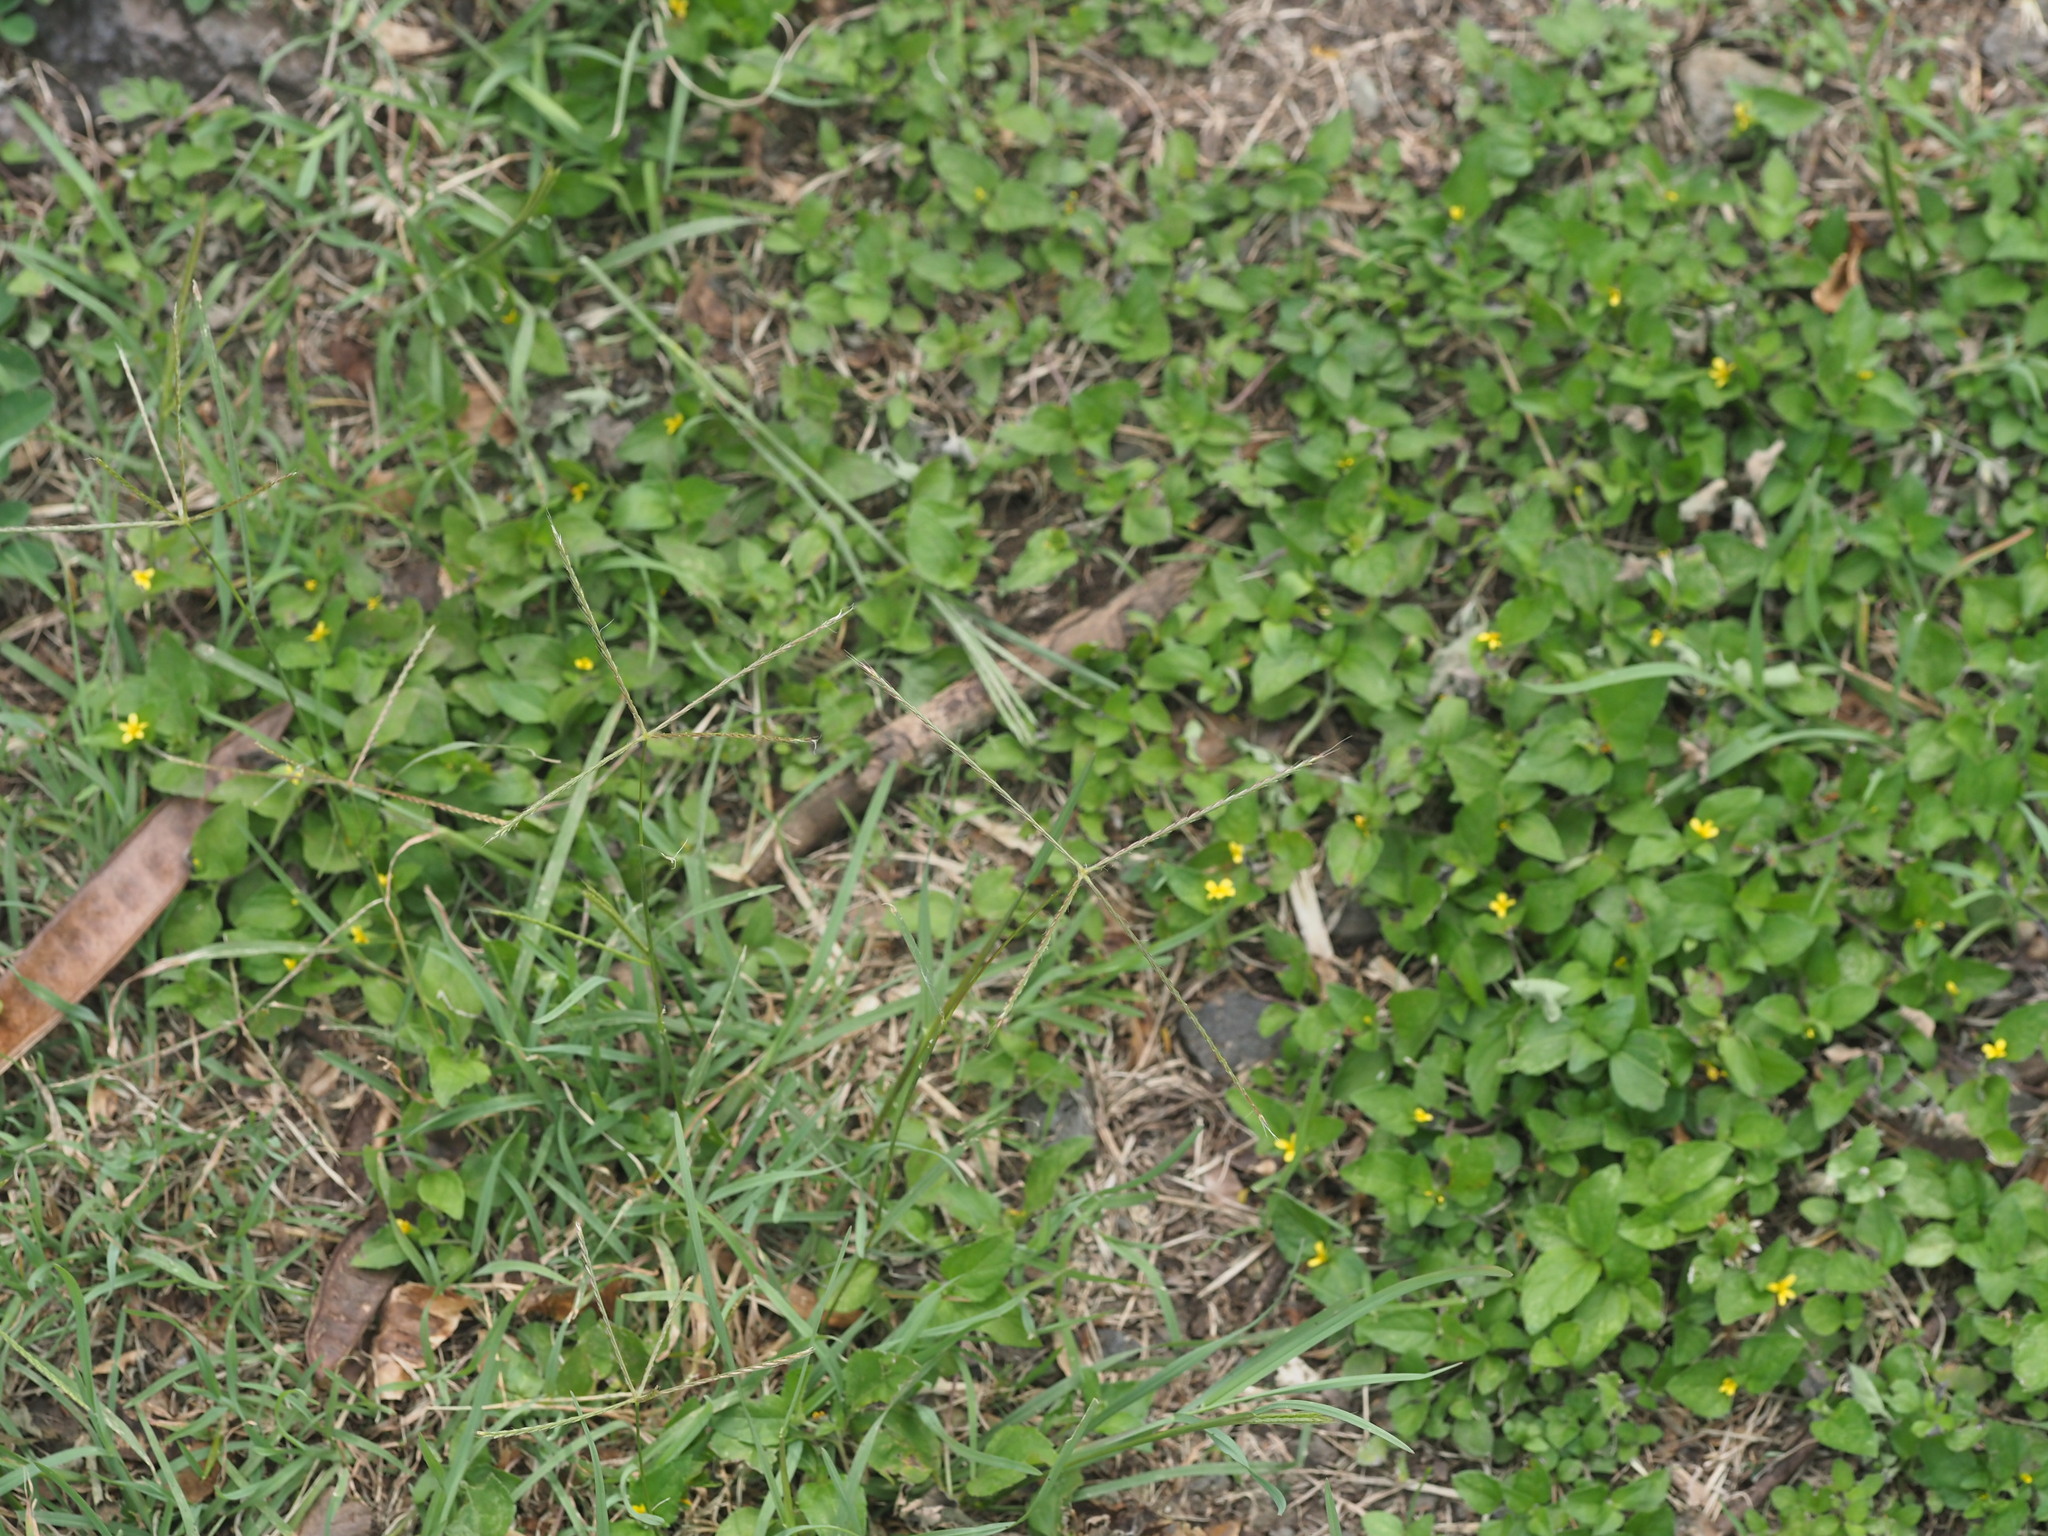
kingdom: Plantae
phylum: Tracheophyta
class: Liliopsida
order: Poales
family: Poaceae
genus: Chloris
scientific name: Chloris divaricata
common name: Spreading windmill grass
